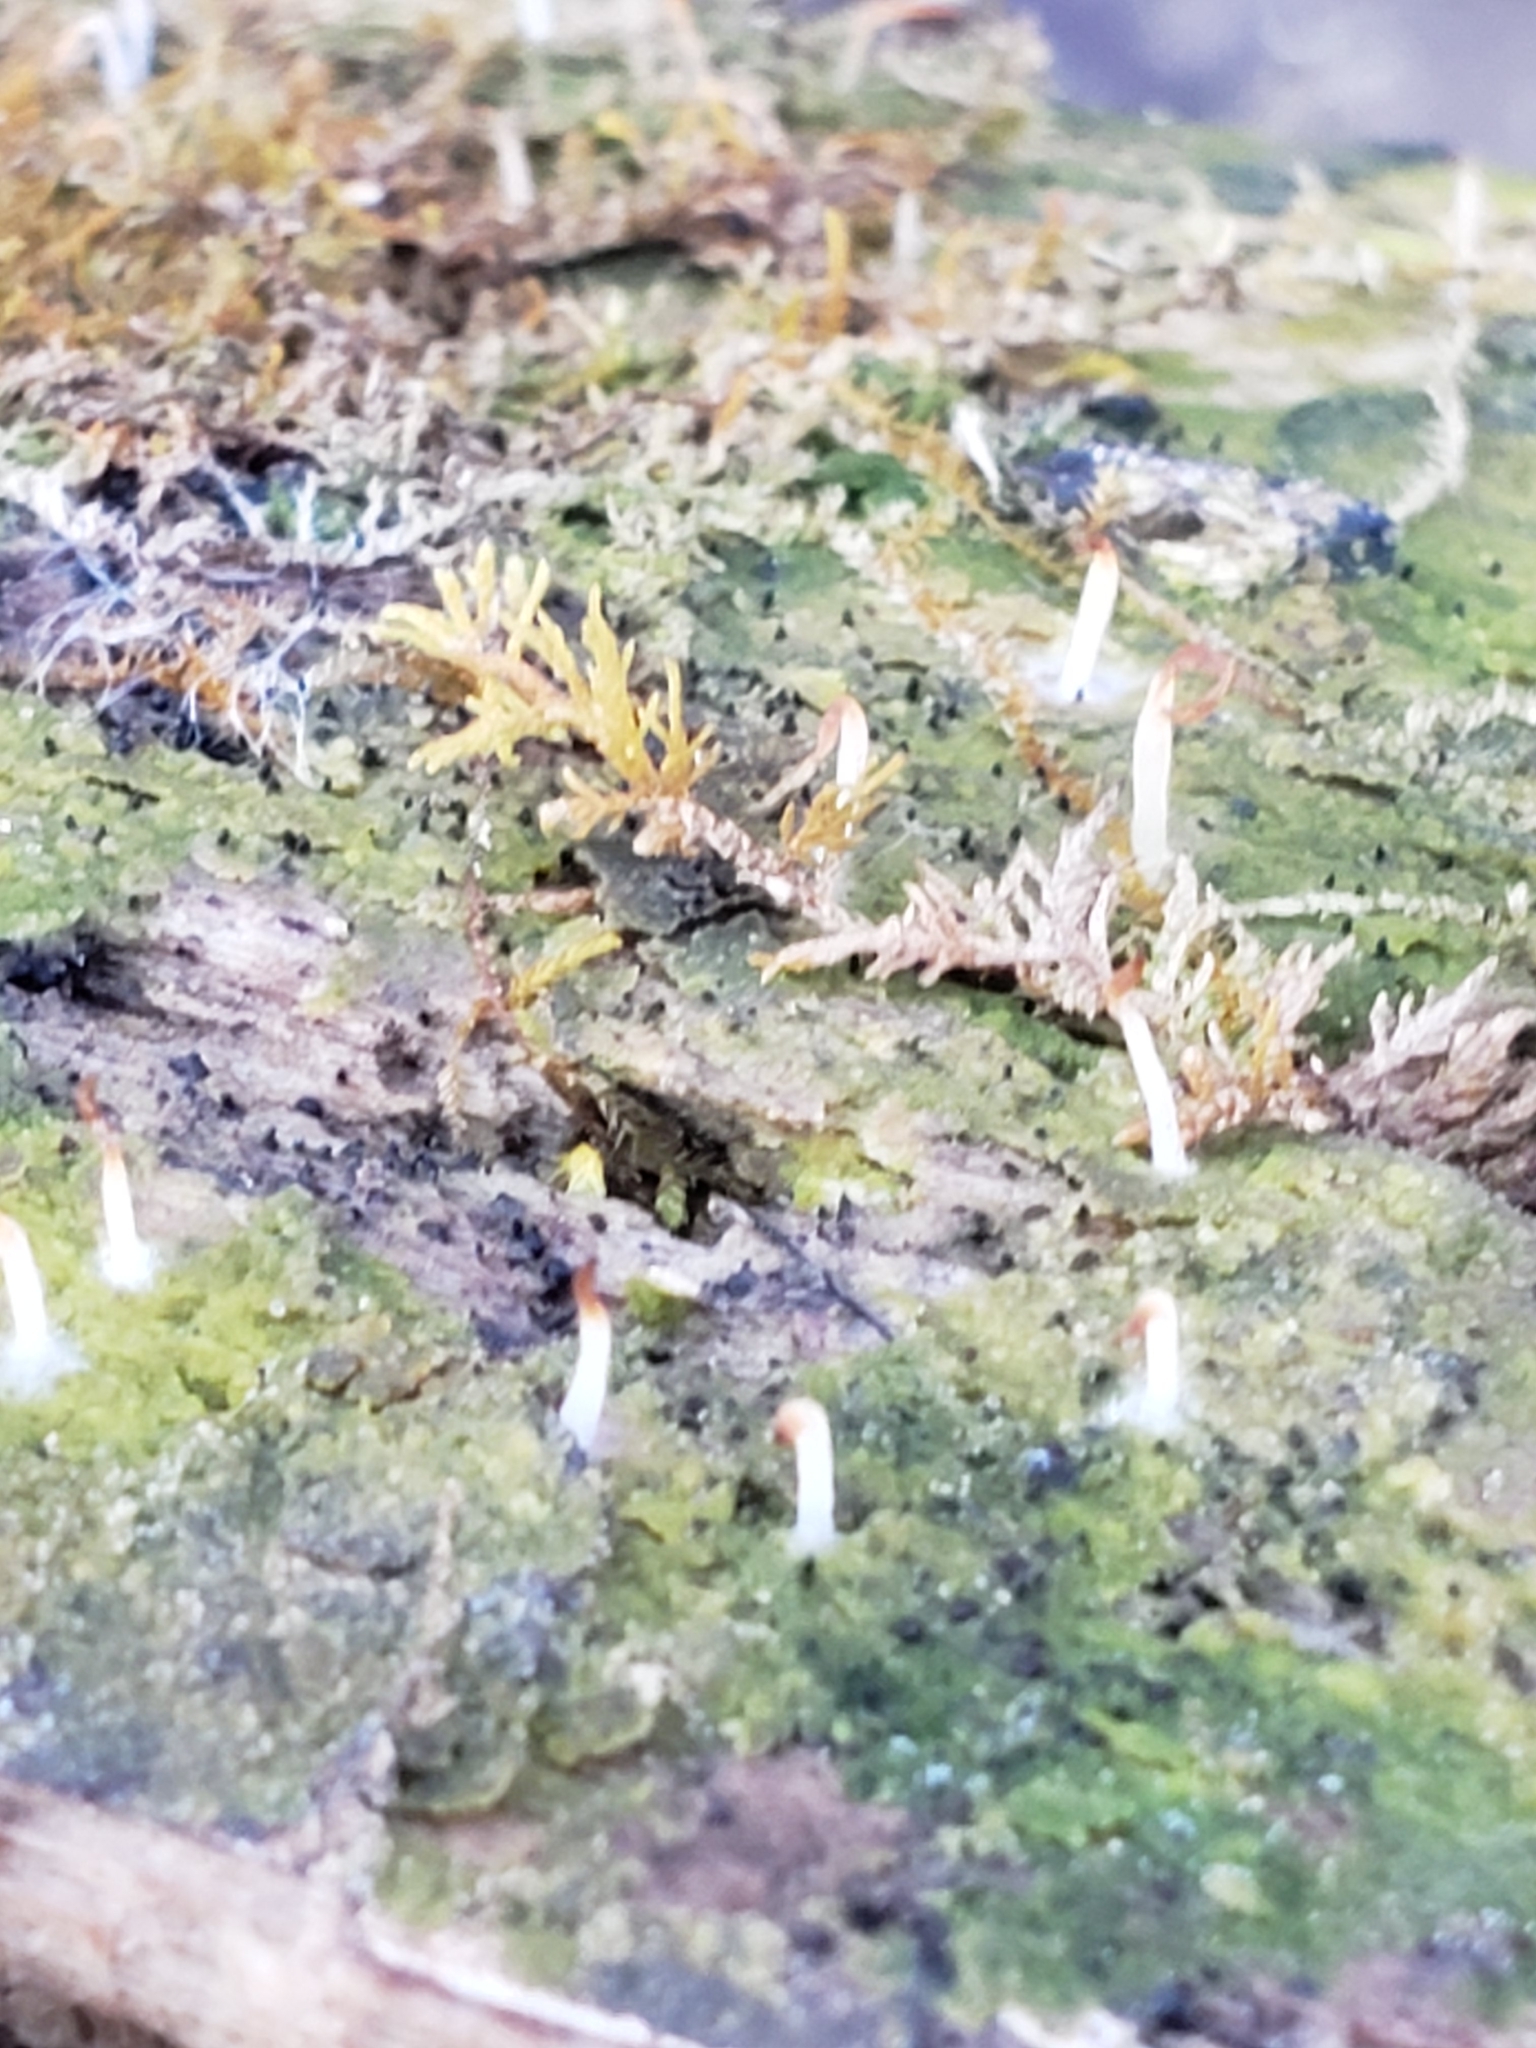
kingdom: Fungi
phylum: Basidiomycota
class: Agaricomycetes
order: Cantharellales
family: Hydnaceae
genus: Multiclavula
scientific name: Multiclavula mucida
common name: White green-algae coral
